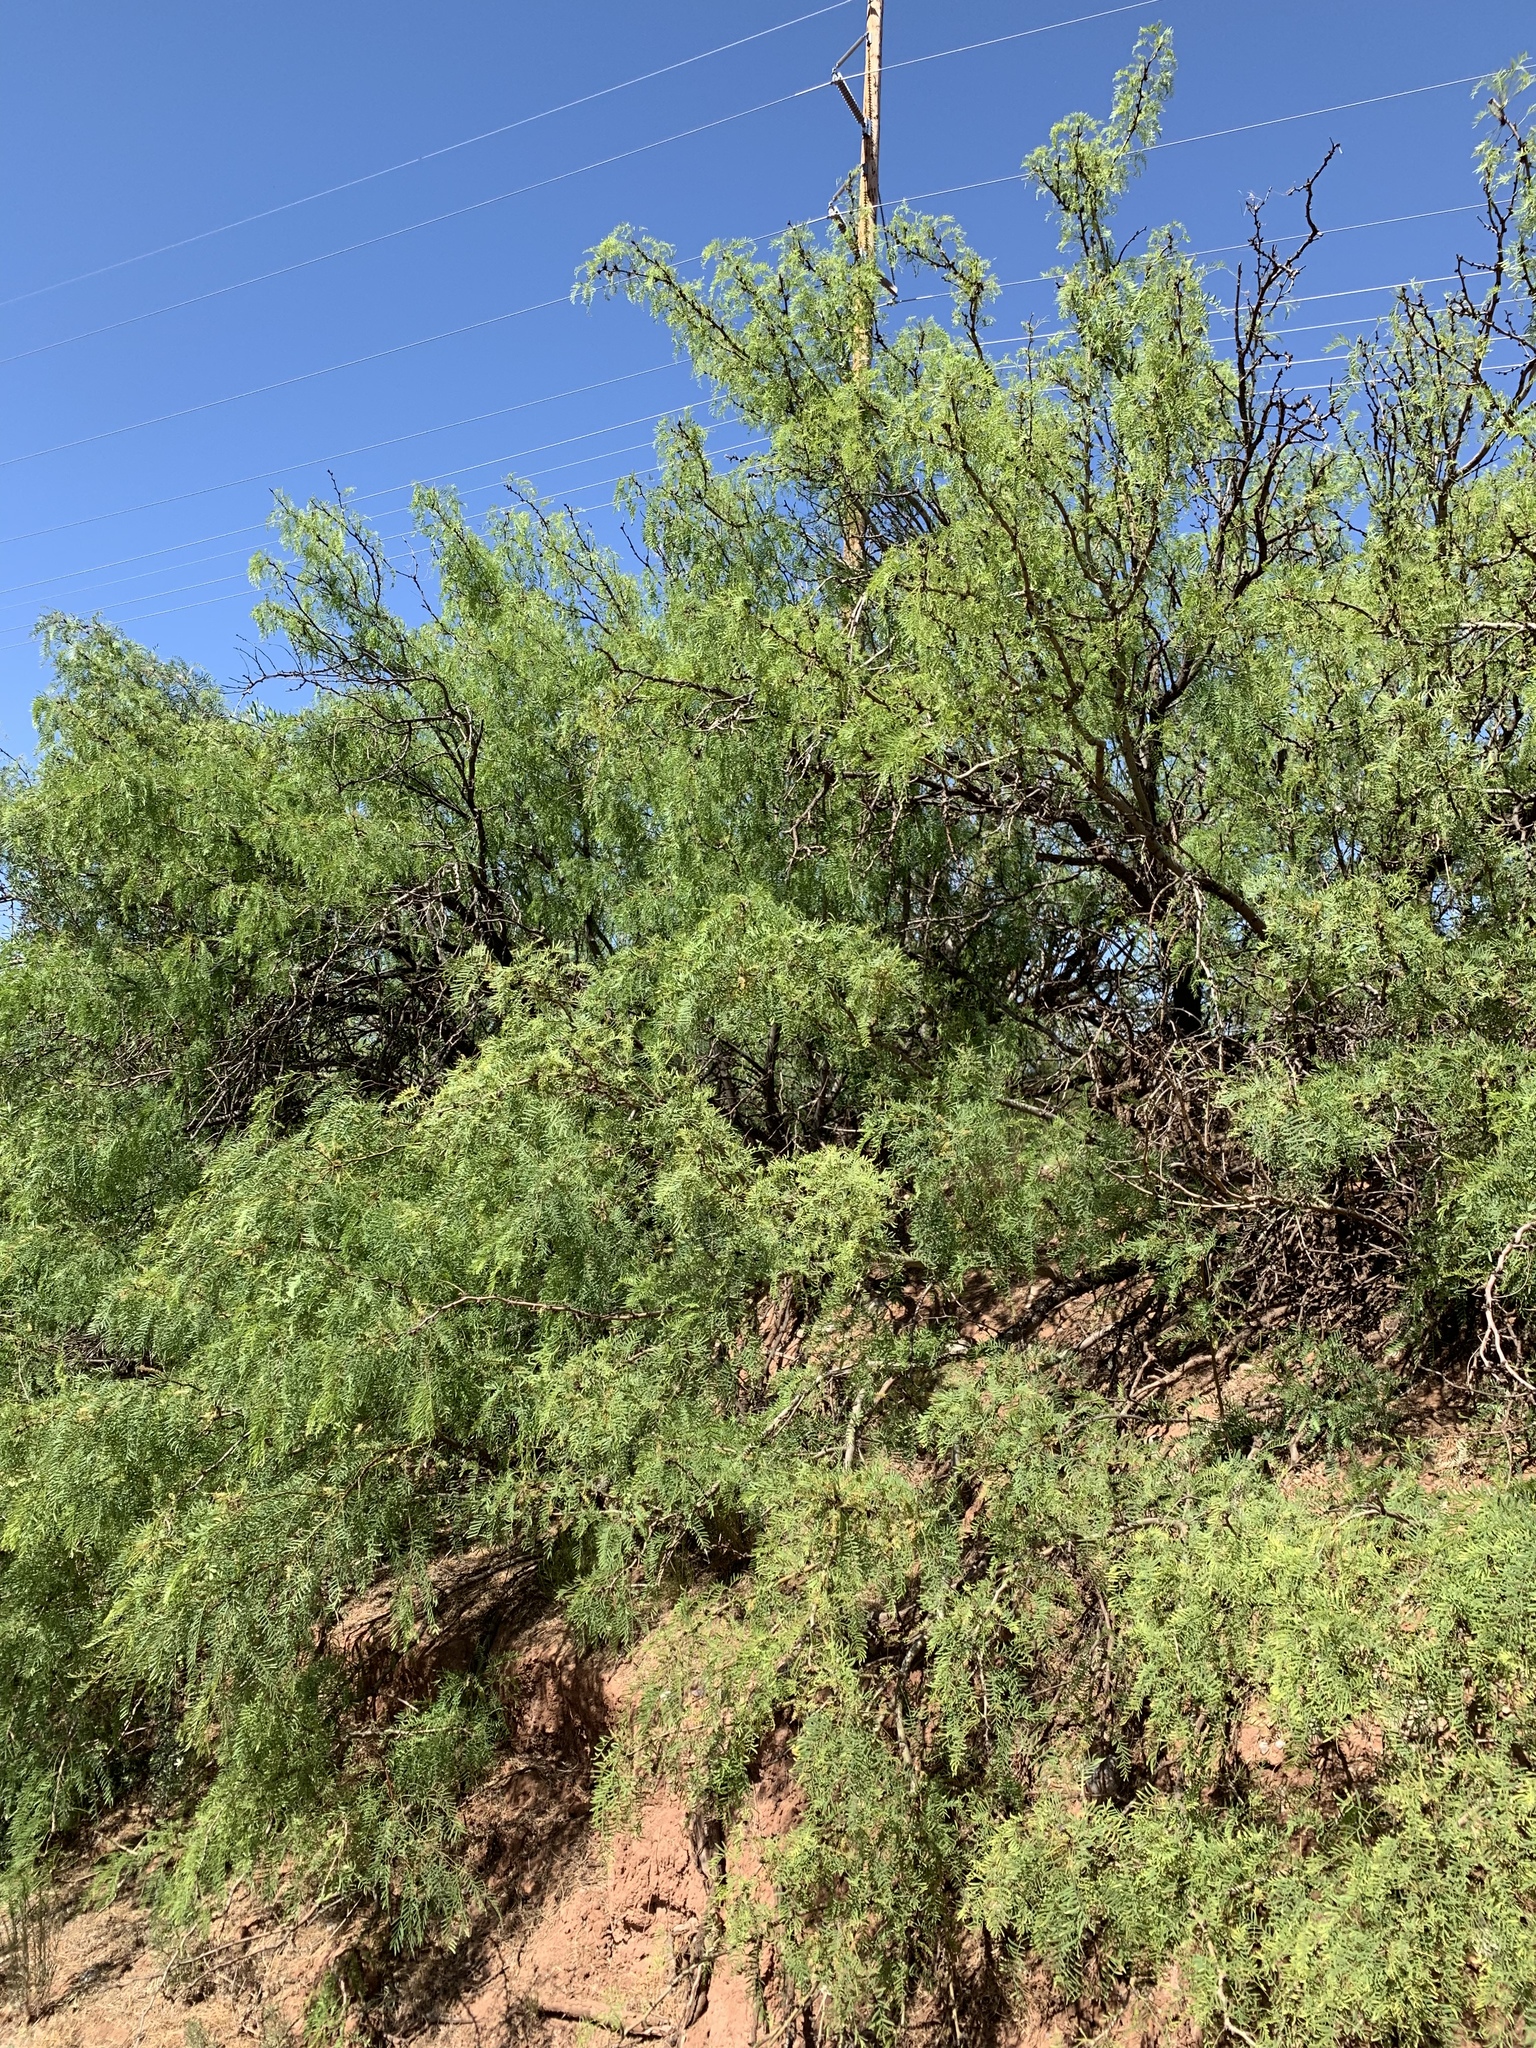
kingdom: Plantae
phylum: Tracheophyta
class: Magnoliopsida
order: Fabales
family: Fabaceae
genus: Prosopis
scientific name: Prosopis glandulosa
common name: Honey mesquite
